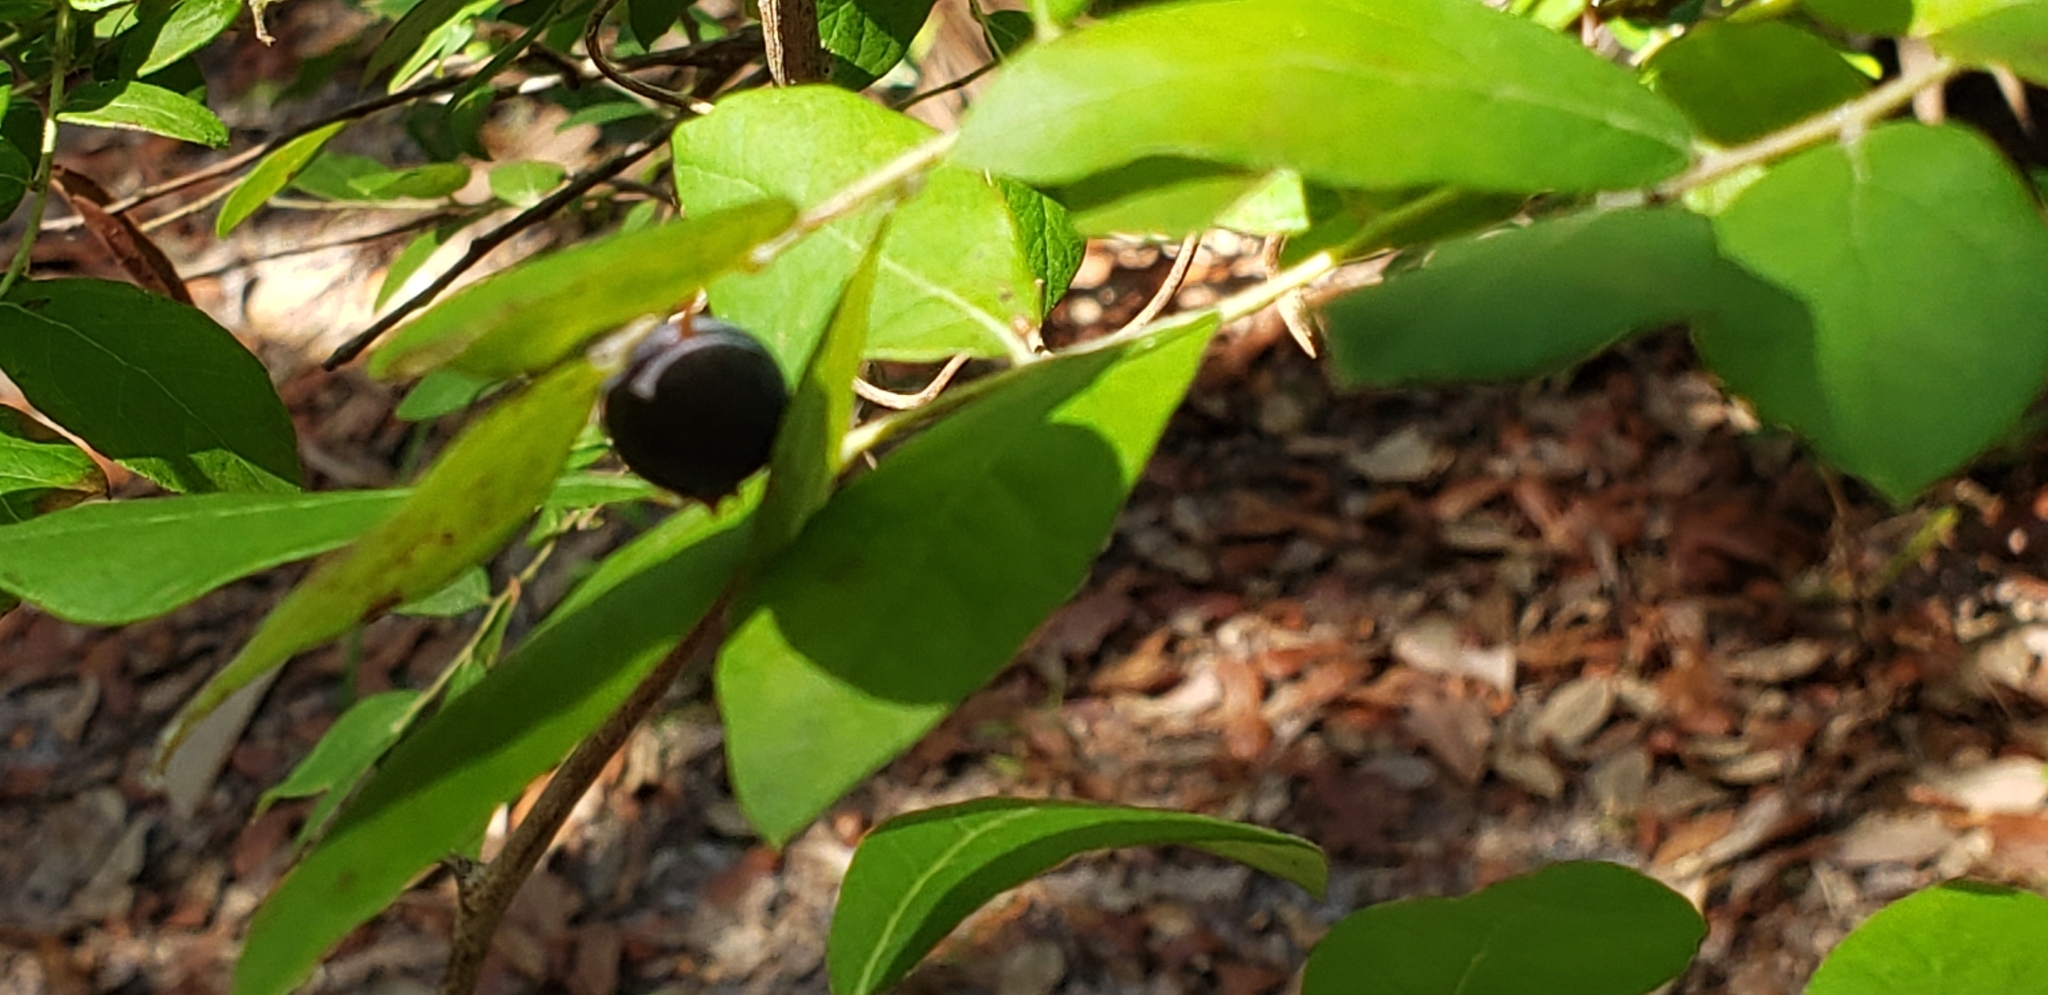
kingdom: Plantae
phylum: Tracheophyta
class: Magnoliopsida
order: Ericales
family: Ericaceae
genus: Vaccinium
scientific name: Vaccinium stamineum
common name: Deerberry
